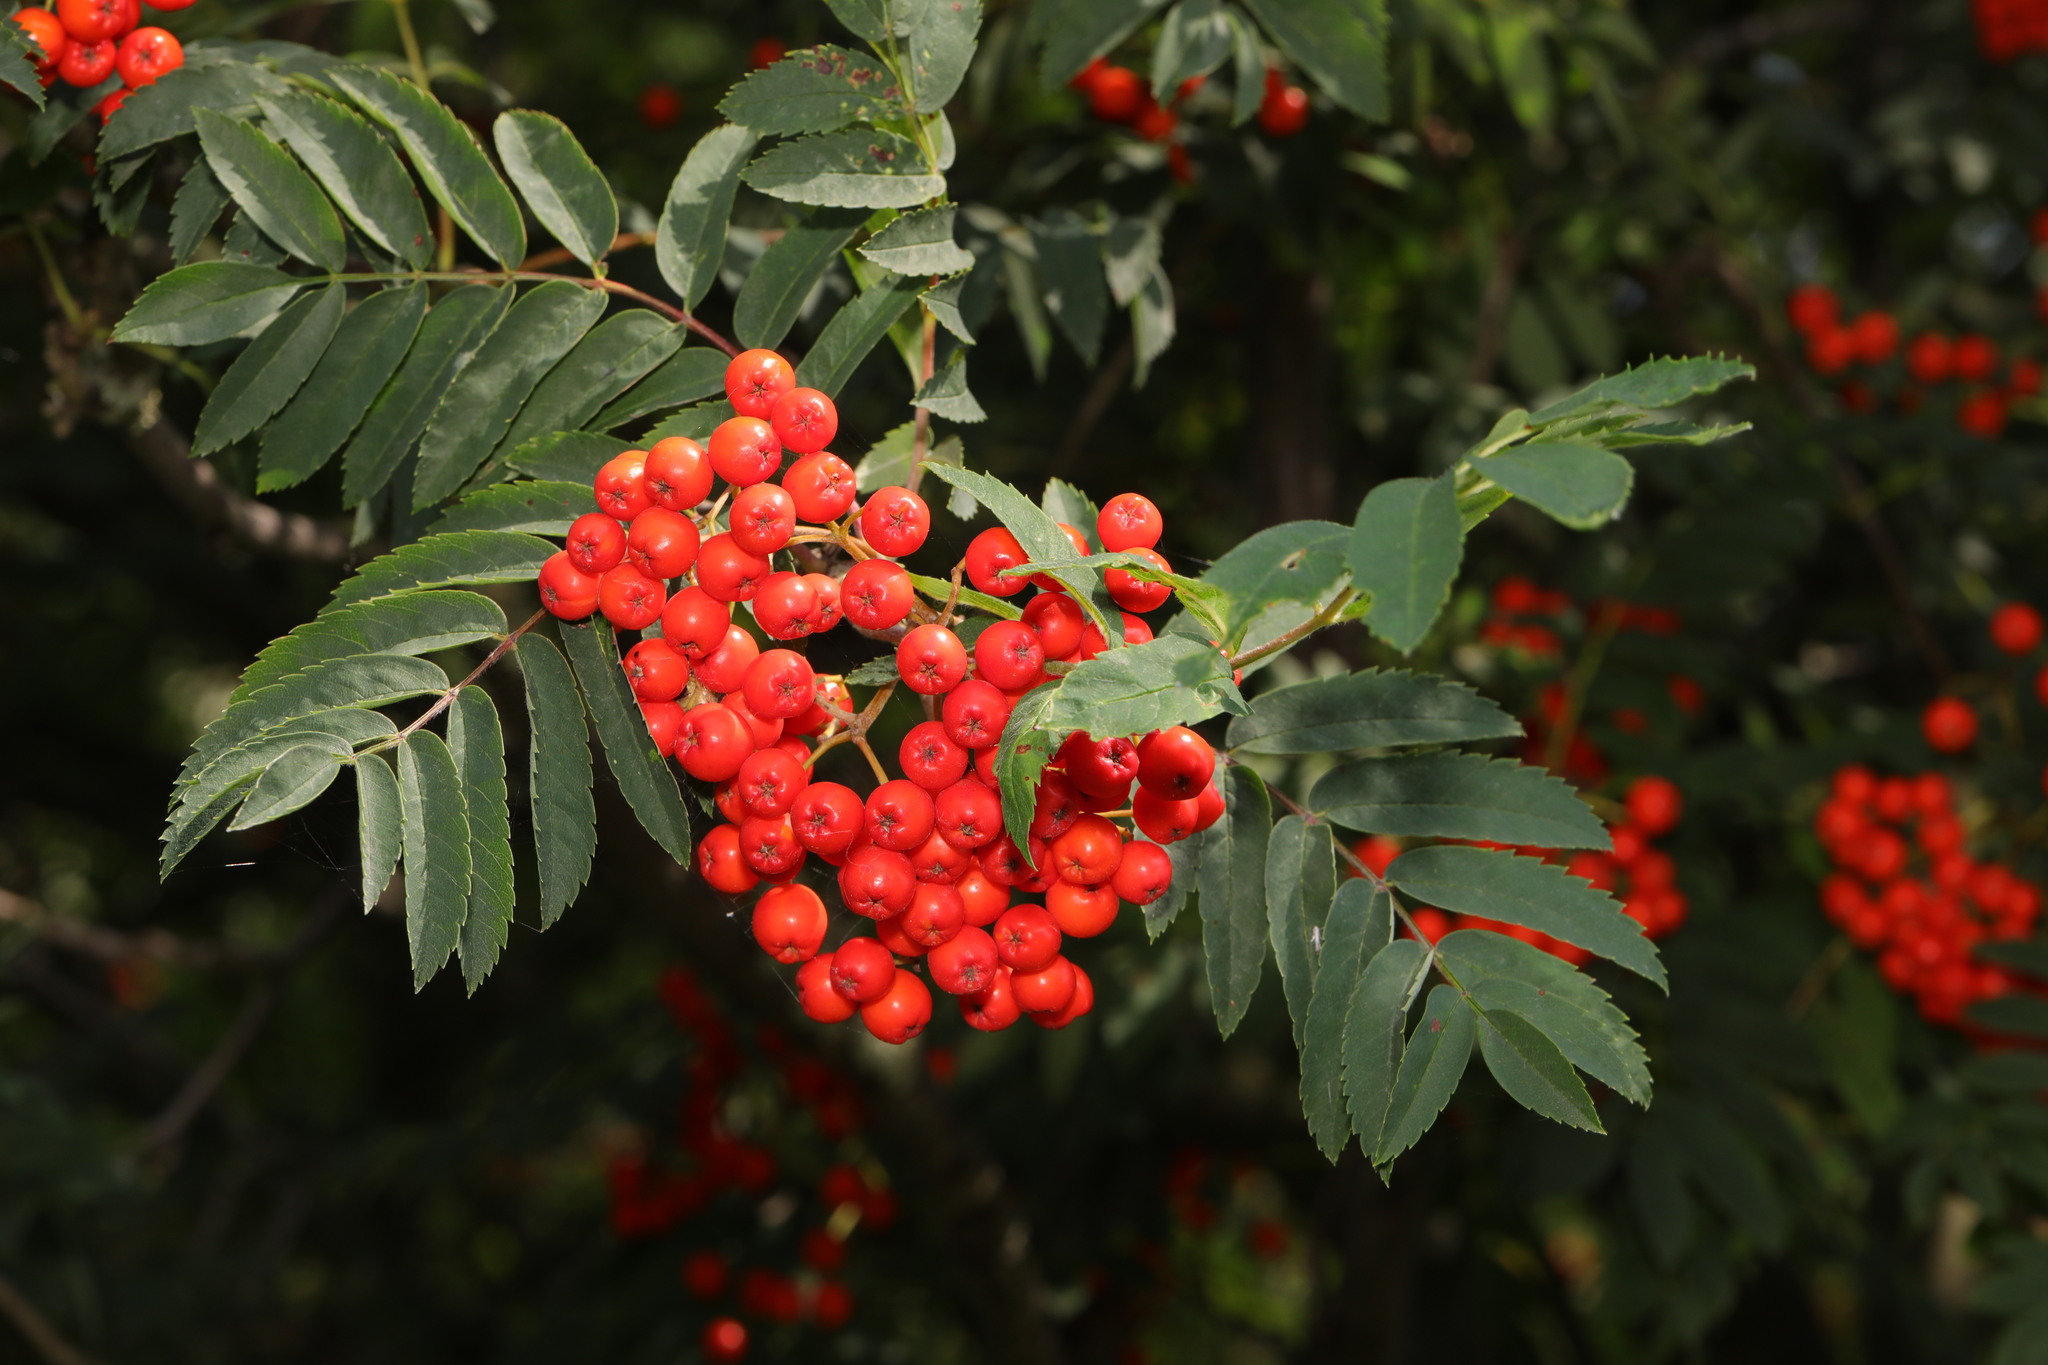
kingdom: Plantae
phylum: Tracheophyta
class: Magnoliopsida
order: Rosales
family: Rosaceae
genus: Sorbus
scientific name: Sorbus aucuparia
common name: Rowan
